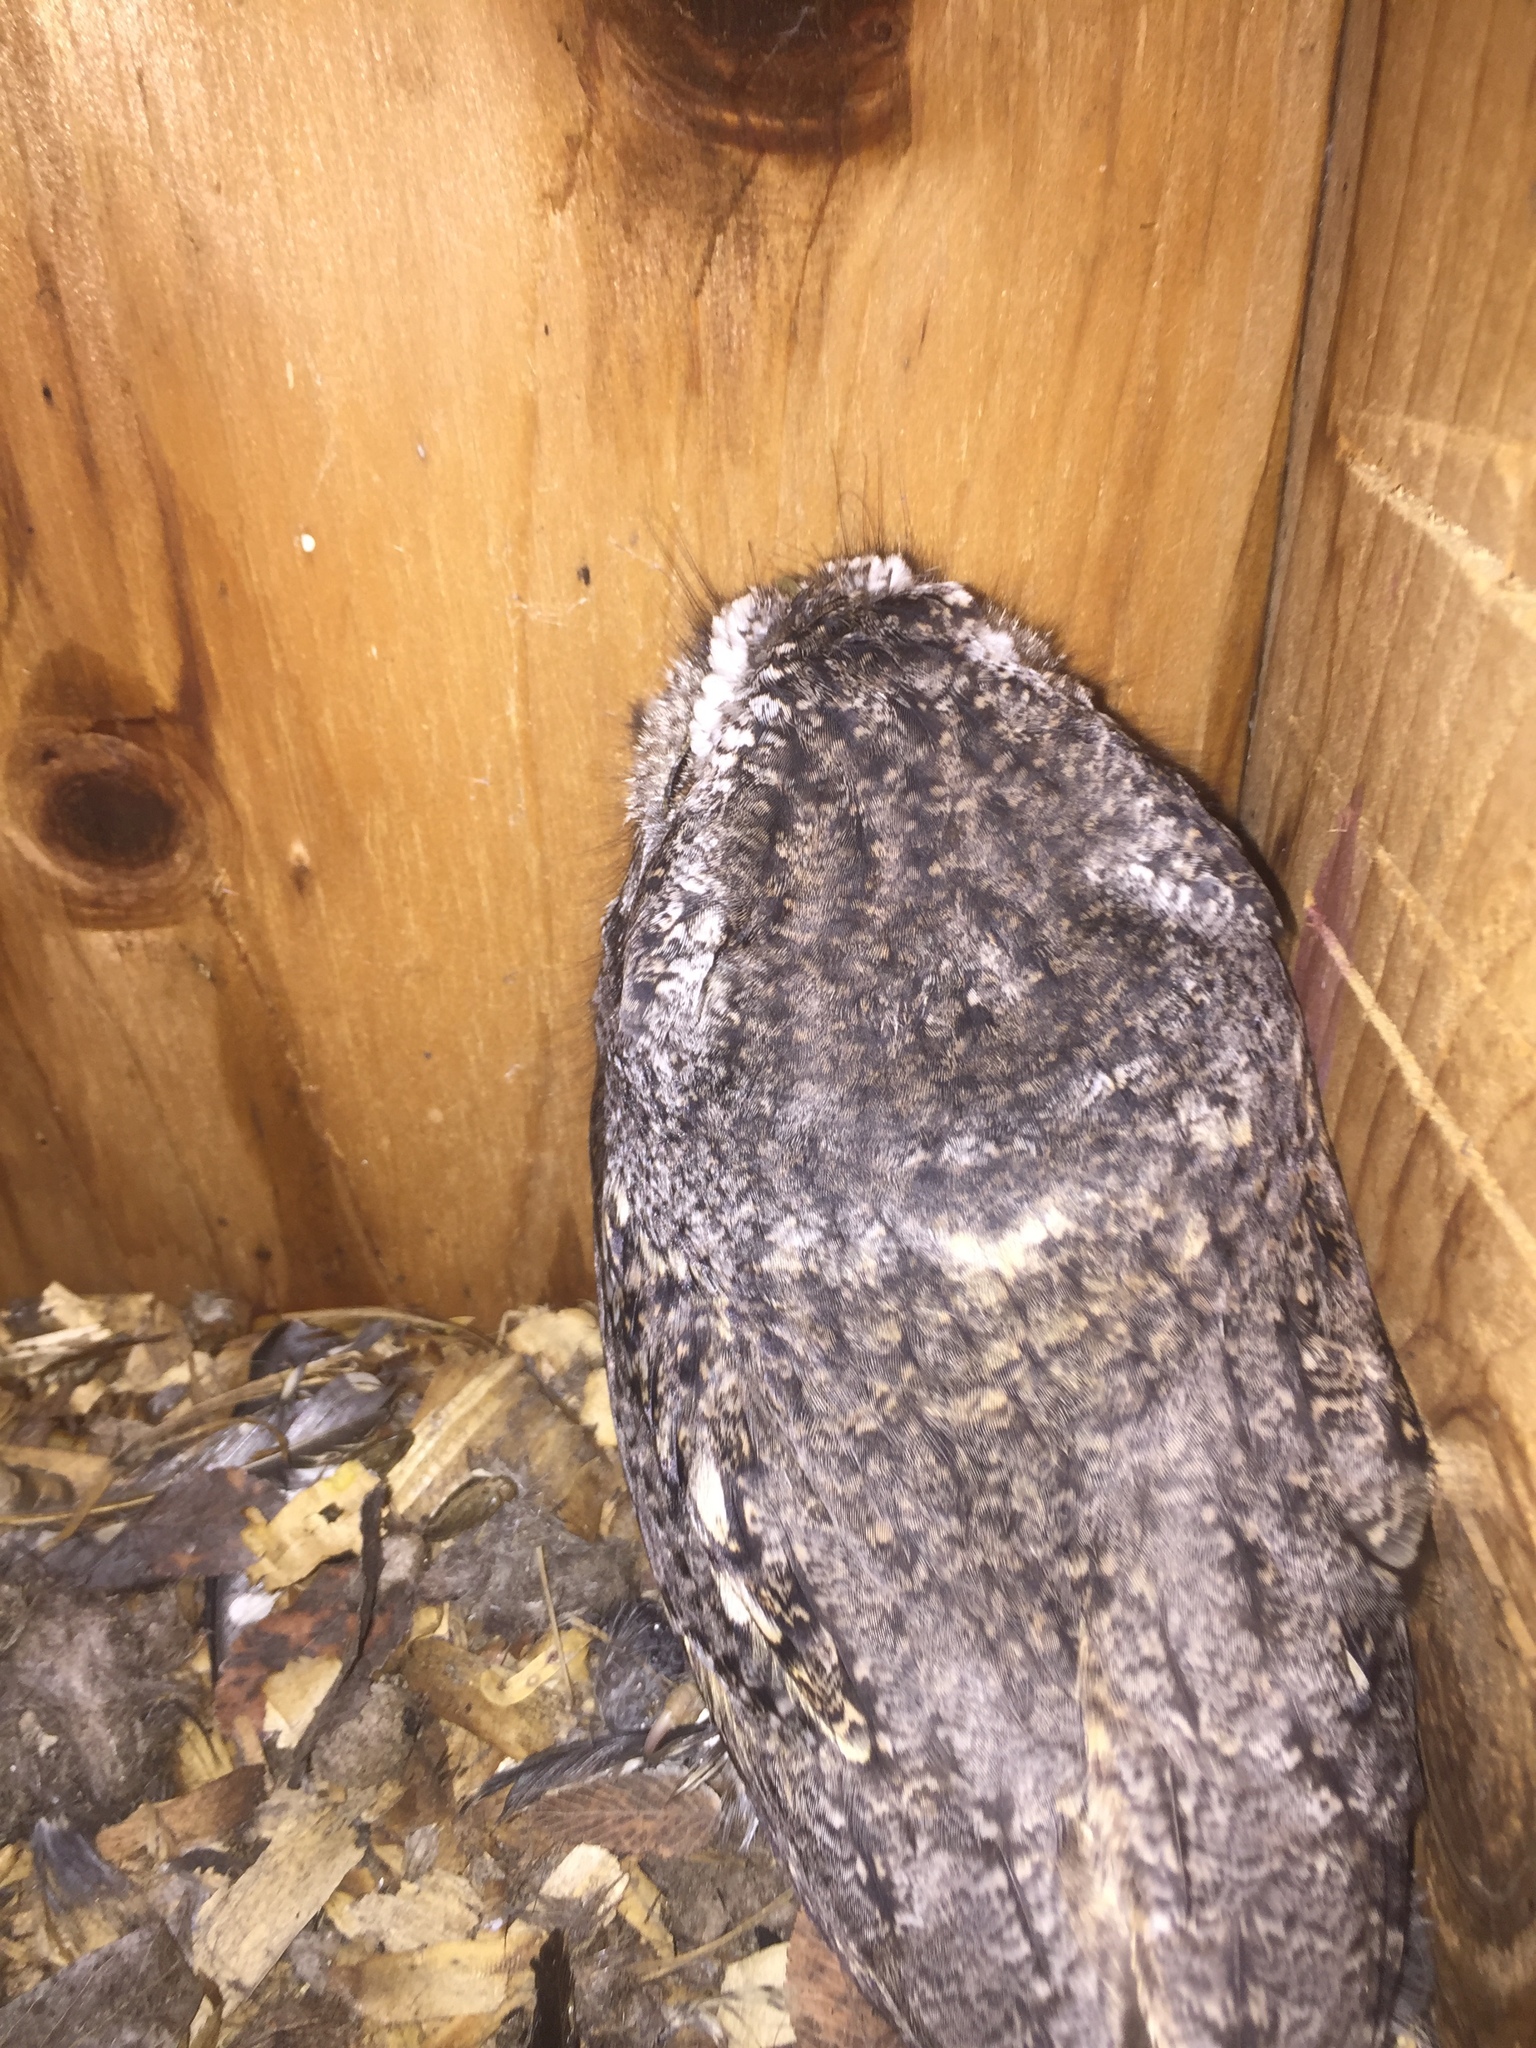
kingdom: Animalia
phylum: Chordata
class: Aves
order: Strigiformes
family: Strigidae
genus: Megascops
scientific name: Megascops asio
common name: Eastern screech-owl
